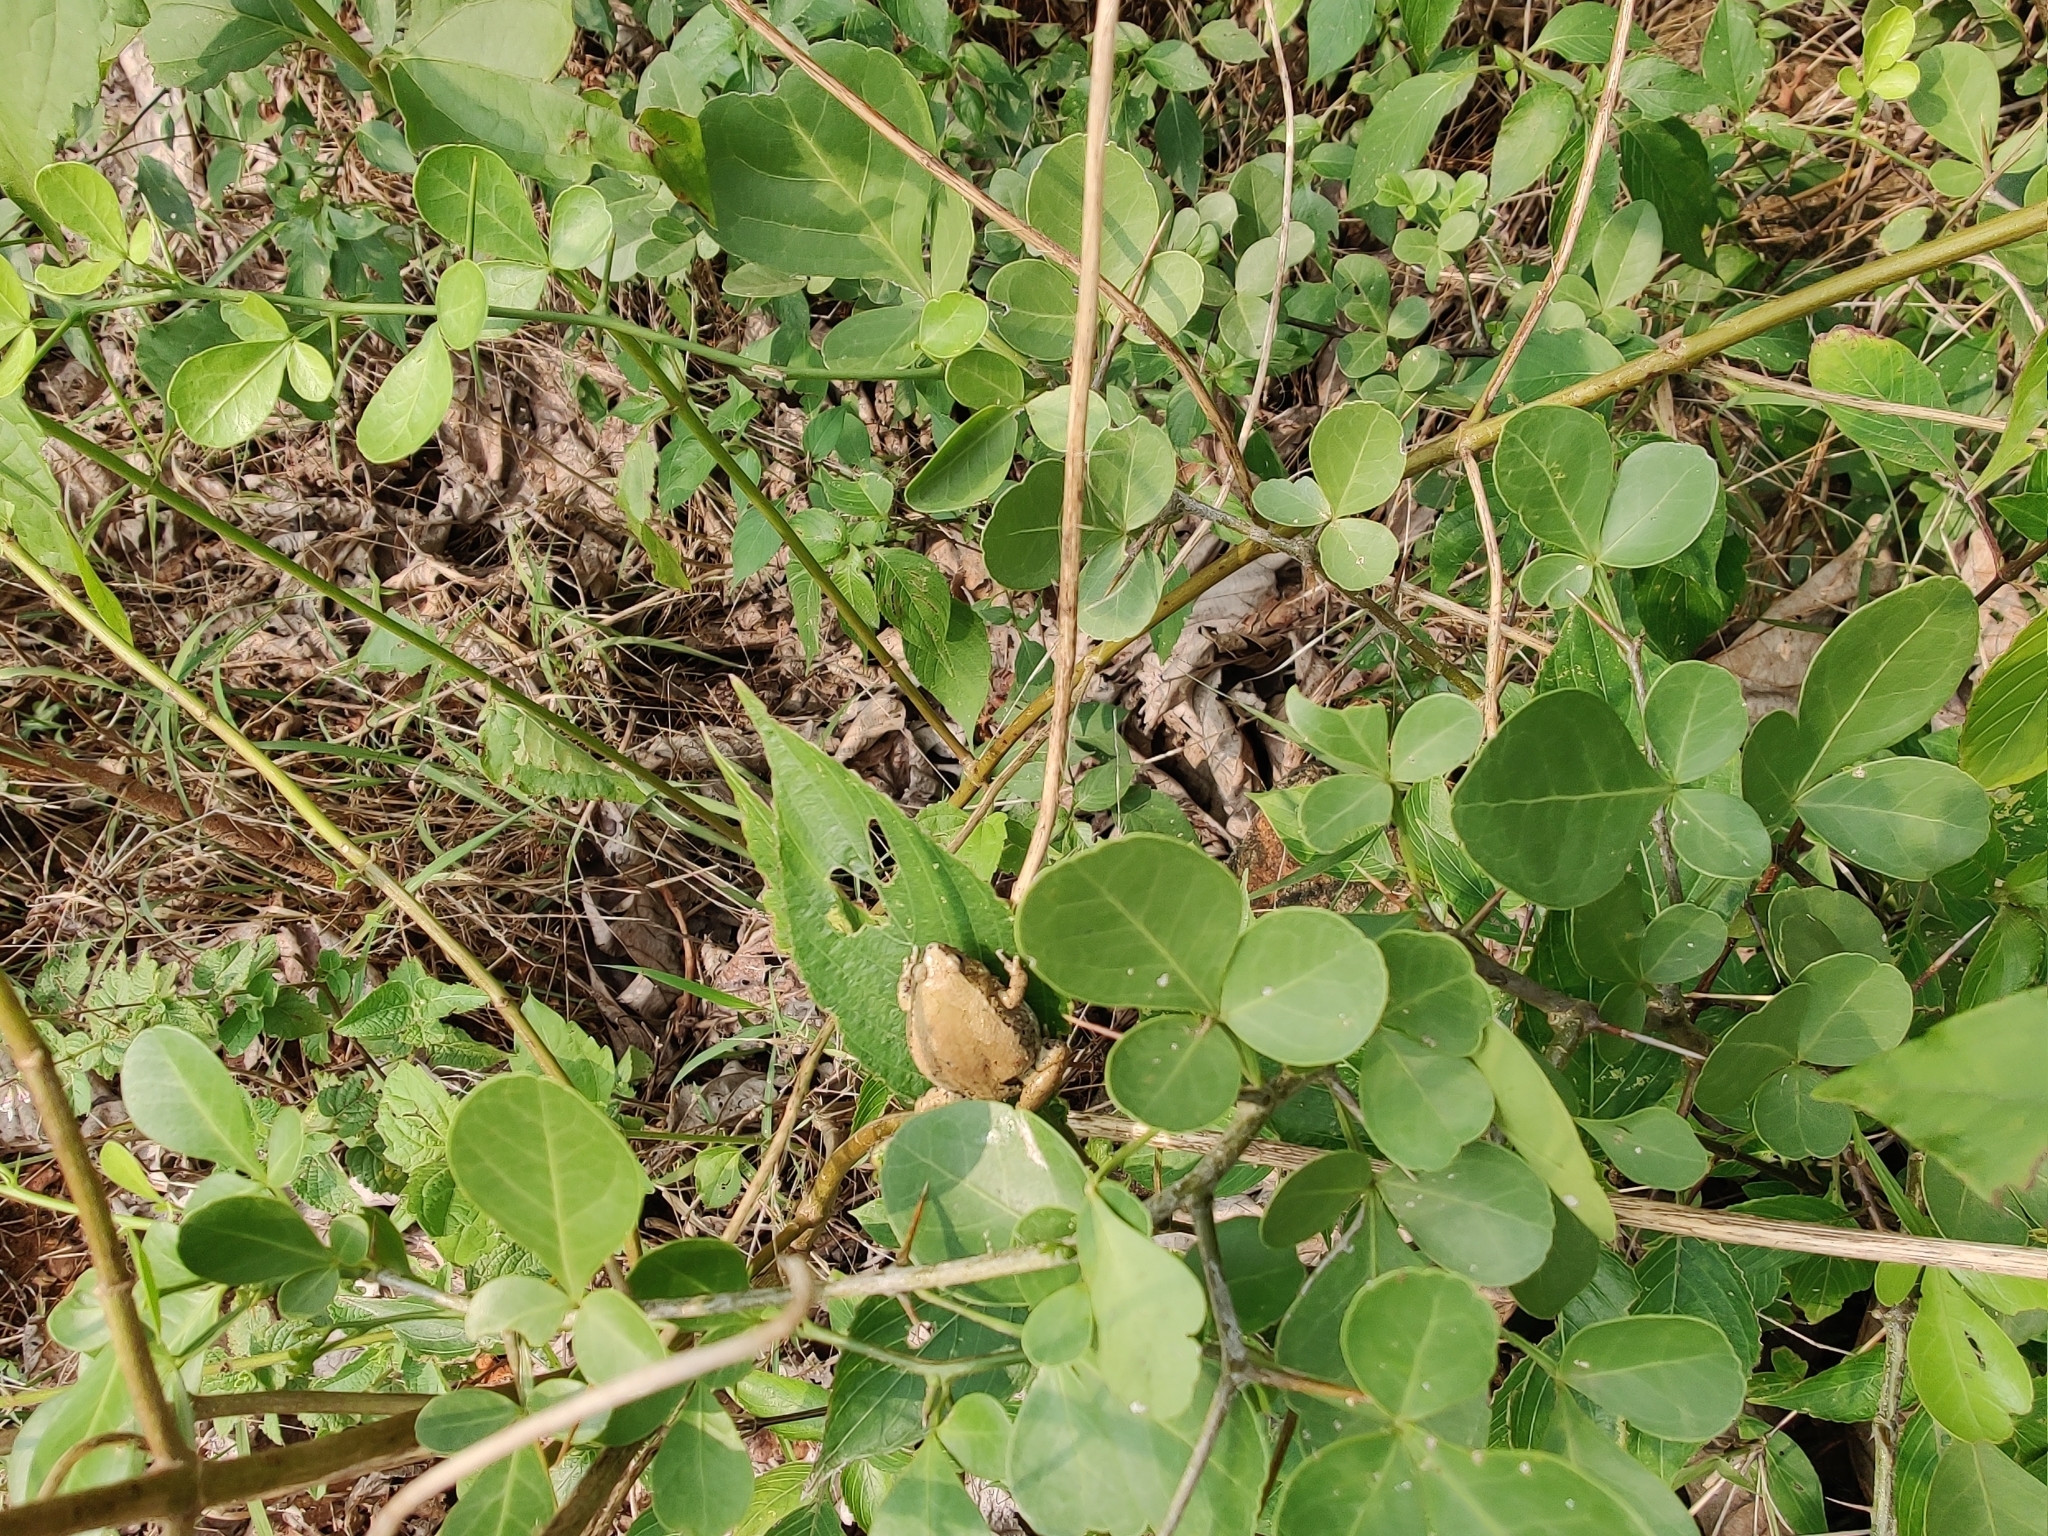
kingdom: Animalia
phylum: Chordata
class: Amphibia
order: Anura
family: Microhylidae
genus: Microhyla
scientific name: Microhyla rubra
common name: Guangdong rice frog
